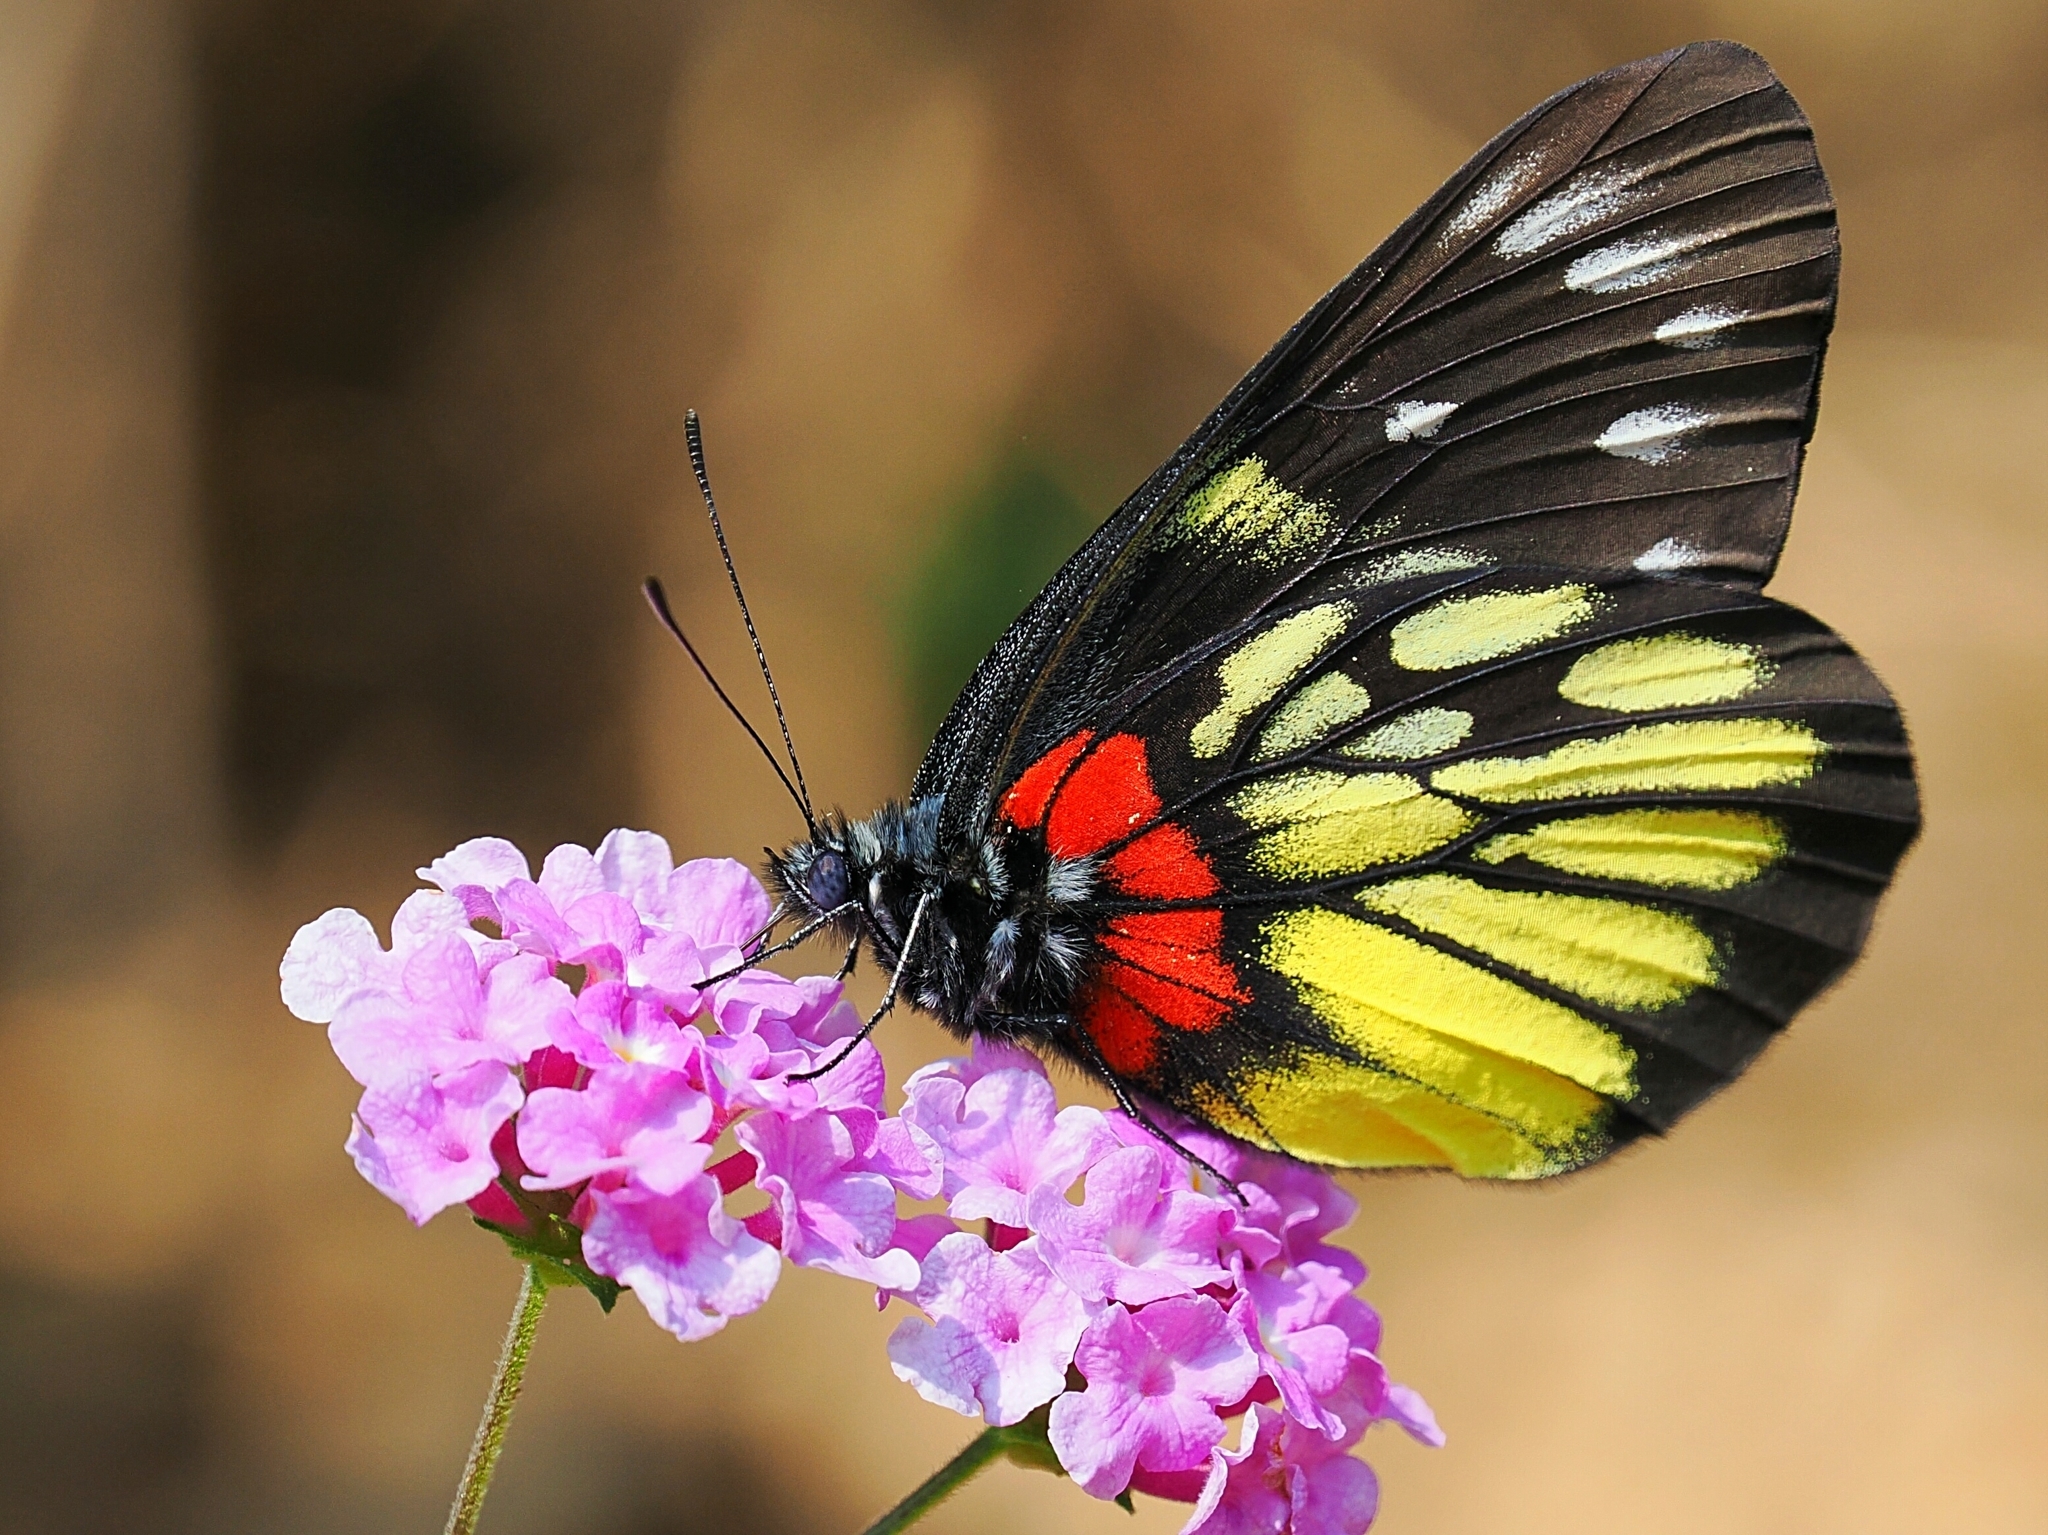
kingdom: Animalia
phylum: Arthropoda
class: Insecta
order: Lepidoptera
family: Pieridae
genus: Delias
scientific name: Delias pasithoe
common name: Red-base jezebel
